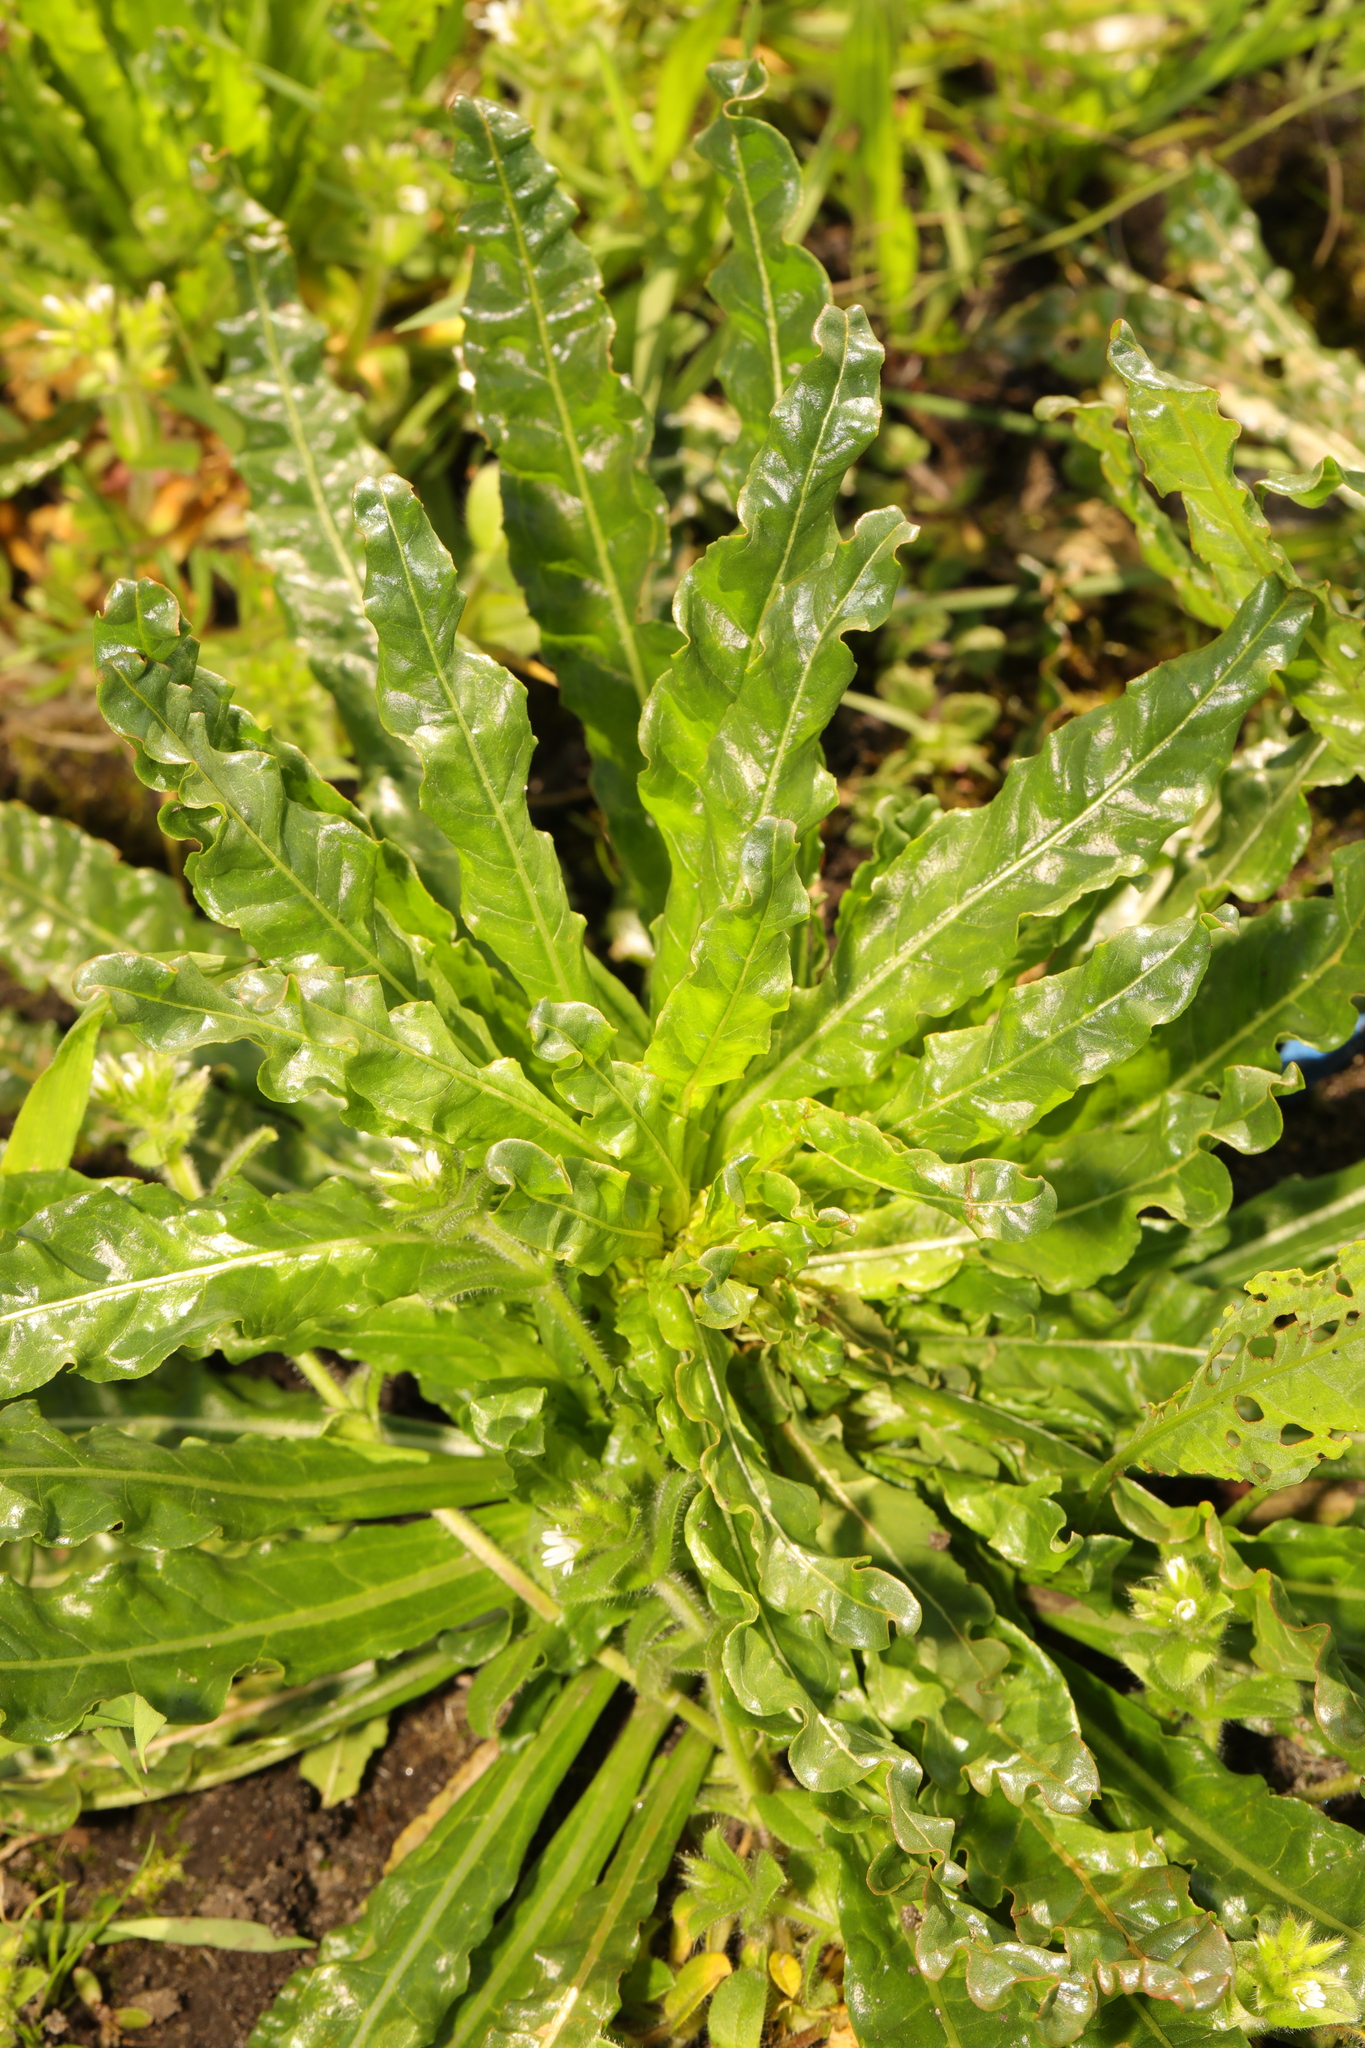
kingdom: Plantae
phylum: Tracheophyta
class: Magnoliopsida
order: Brassicales
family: Resedaceae
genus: Reseda
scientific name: Reseda luteola
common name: Weld
